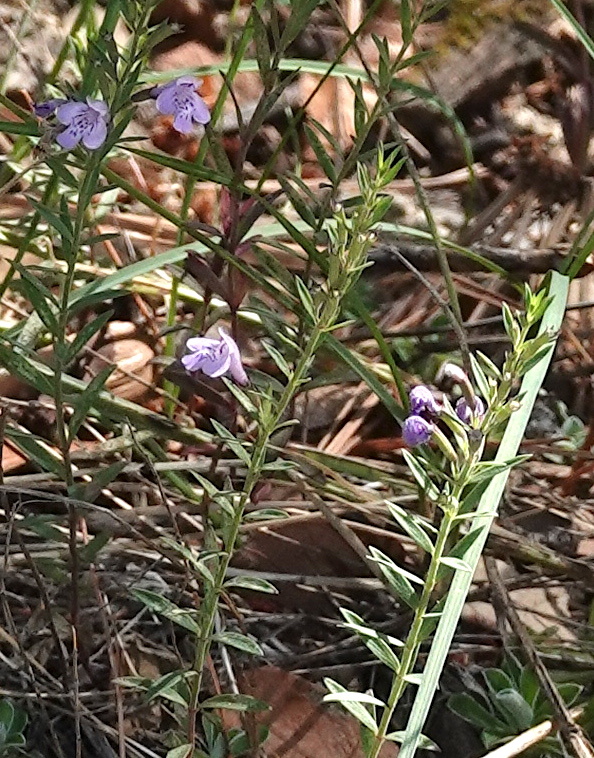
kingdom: Plantae
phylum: Tracheophyta
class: Magnoliopsida
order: Lamiales
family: Lamiaceae
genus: Hedeoma
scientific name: Hedeoma hyssopifolia
